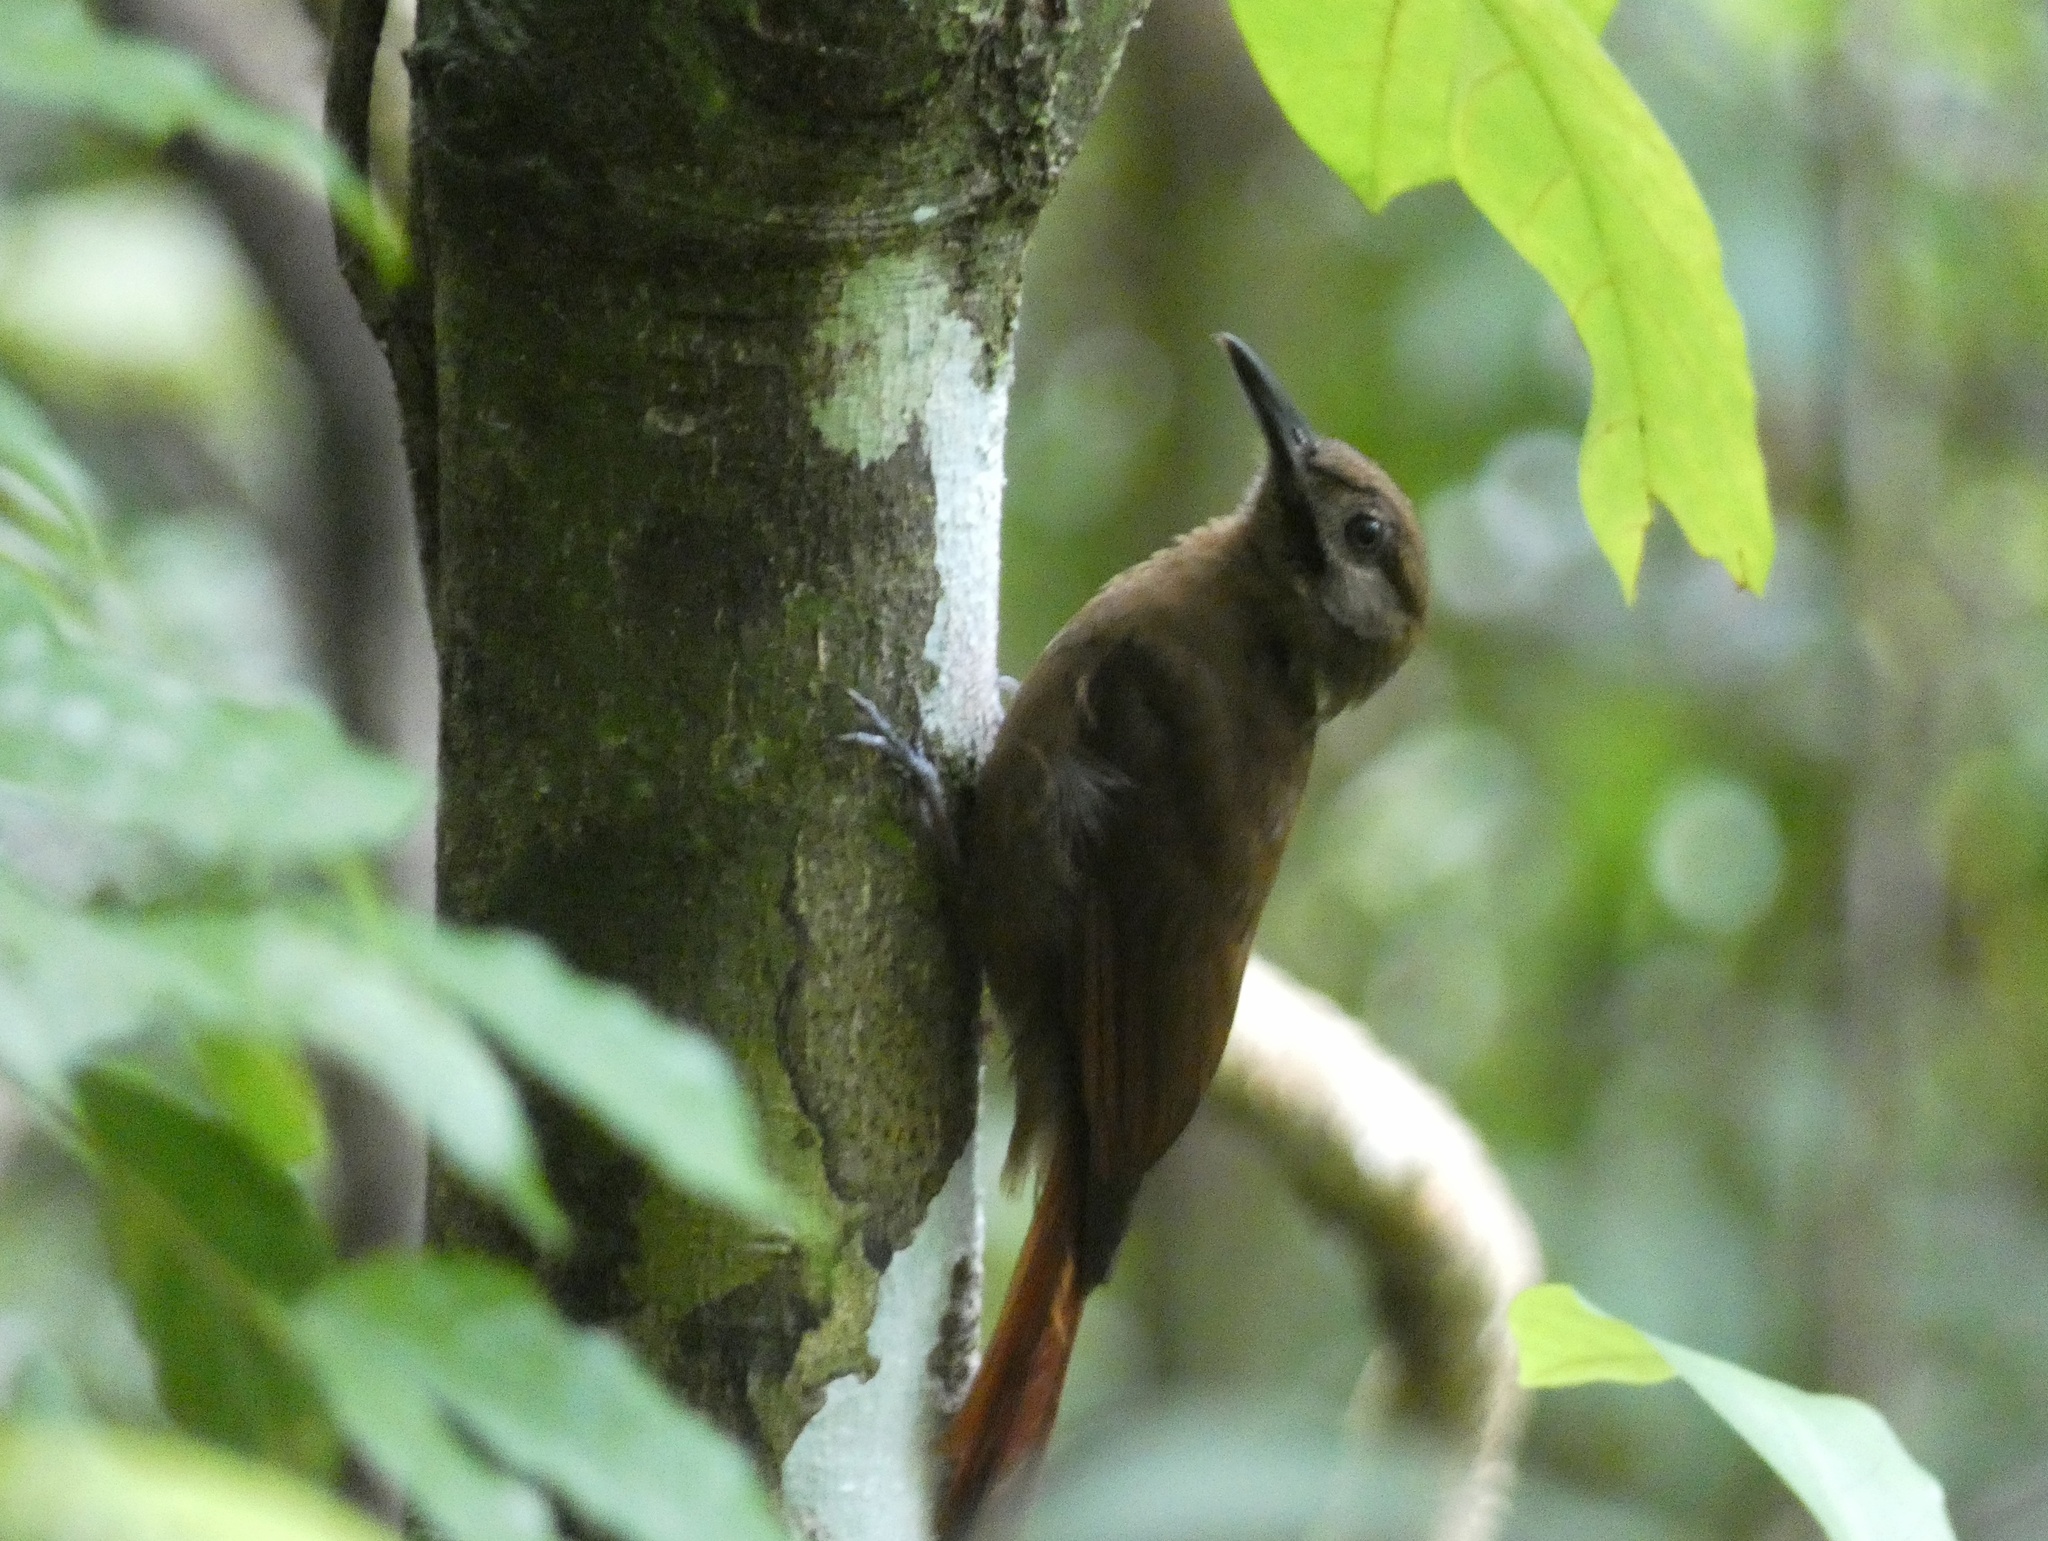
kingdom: Animalia
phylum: Chordata
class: Aves
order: Passeriformes
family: Furnariidae
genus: Dendrocincla
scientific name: Dendrocincla fuliginosa
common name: Plain-brown woodcreeper
